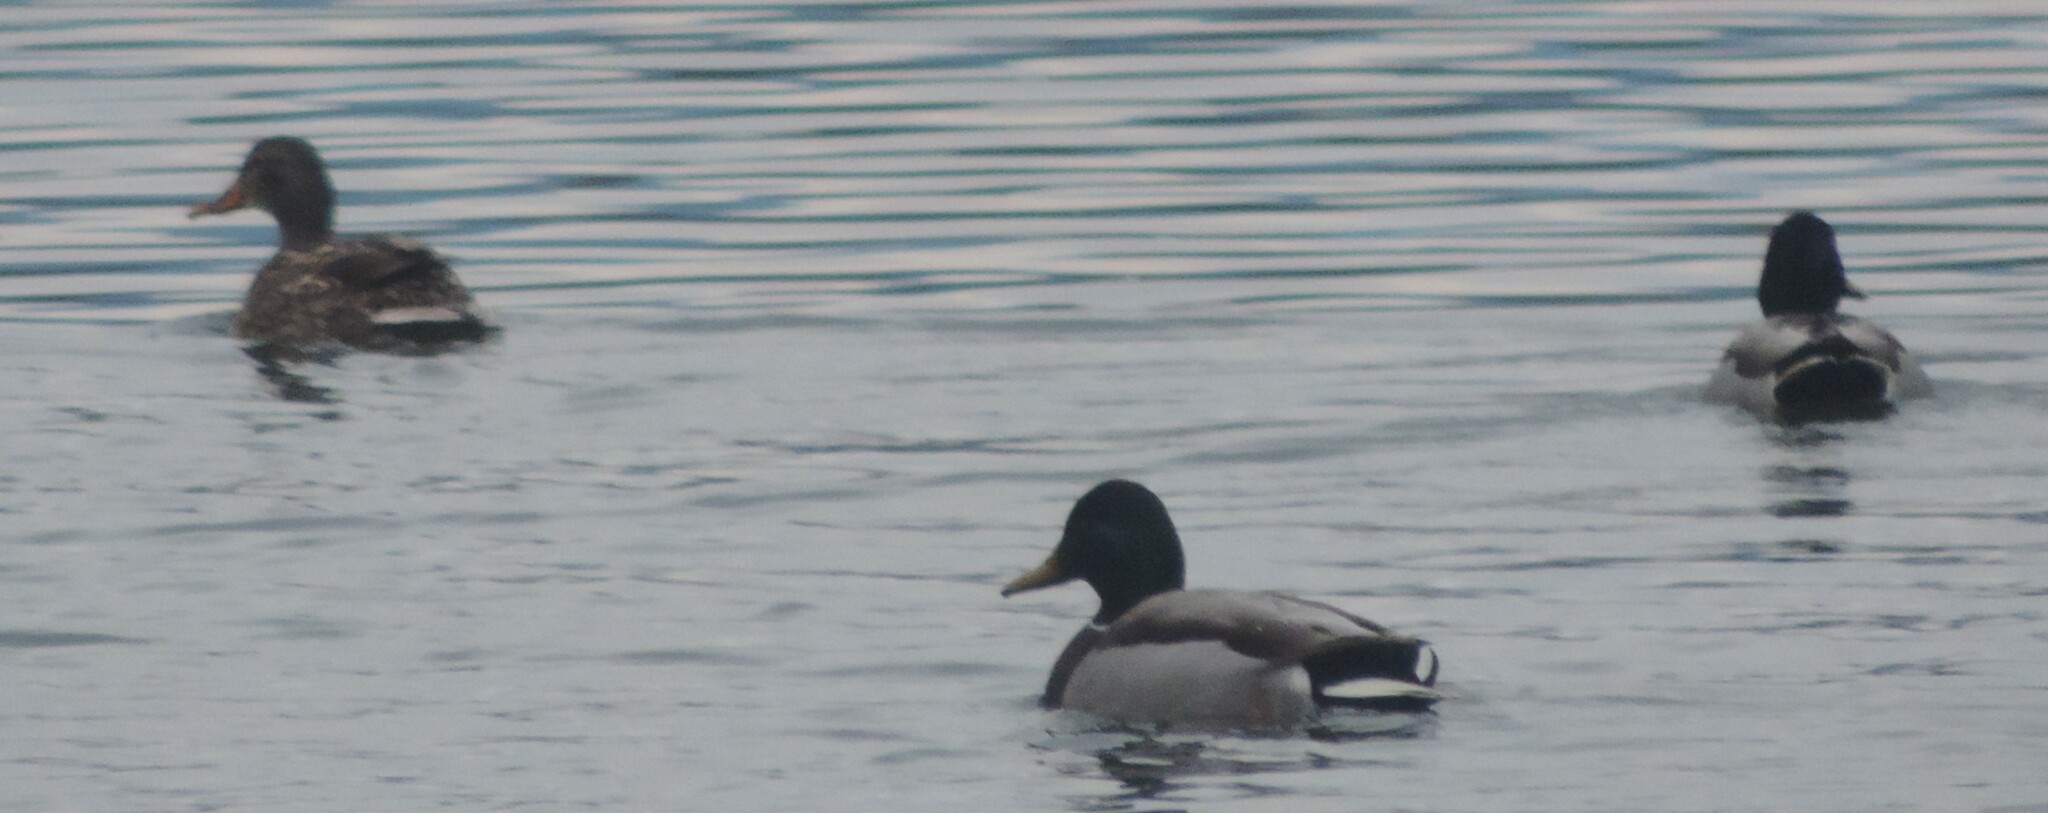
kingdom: Animalia
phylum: Chordata
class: Aves
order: Anseriformes
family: Anatidae
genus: Anas
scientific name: Anas platyrhynchos
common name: Mallard
